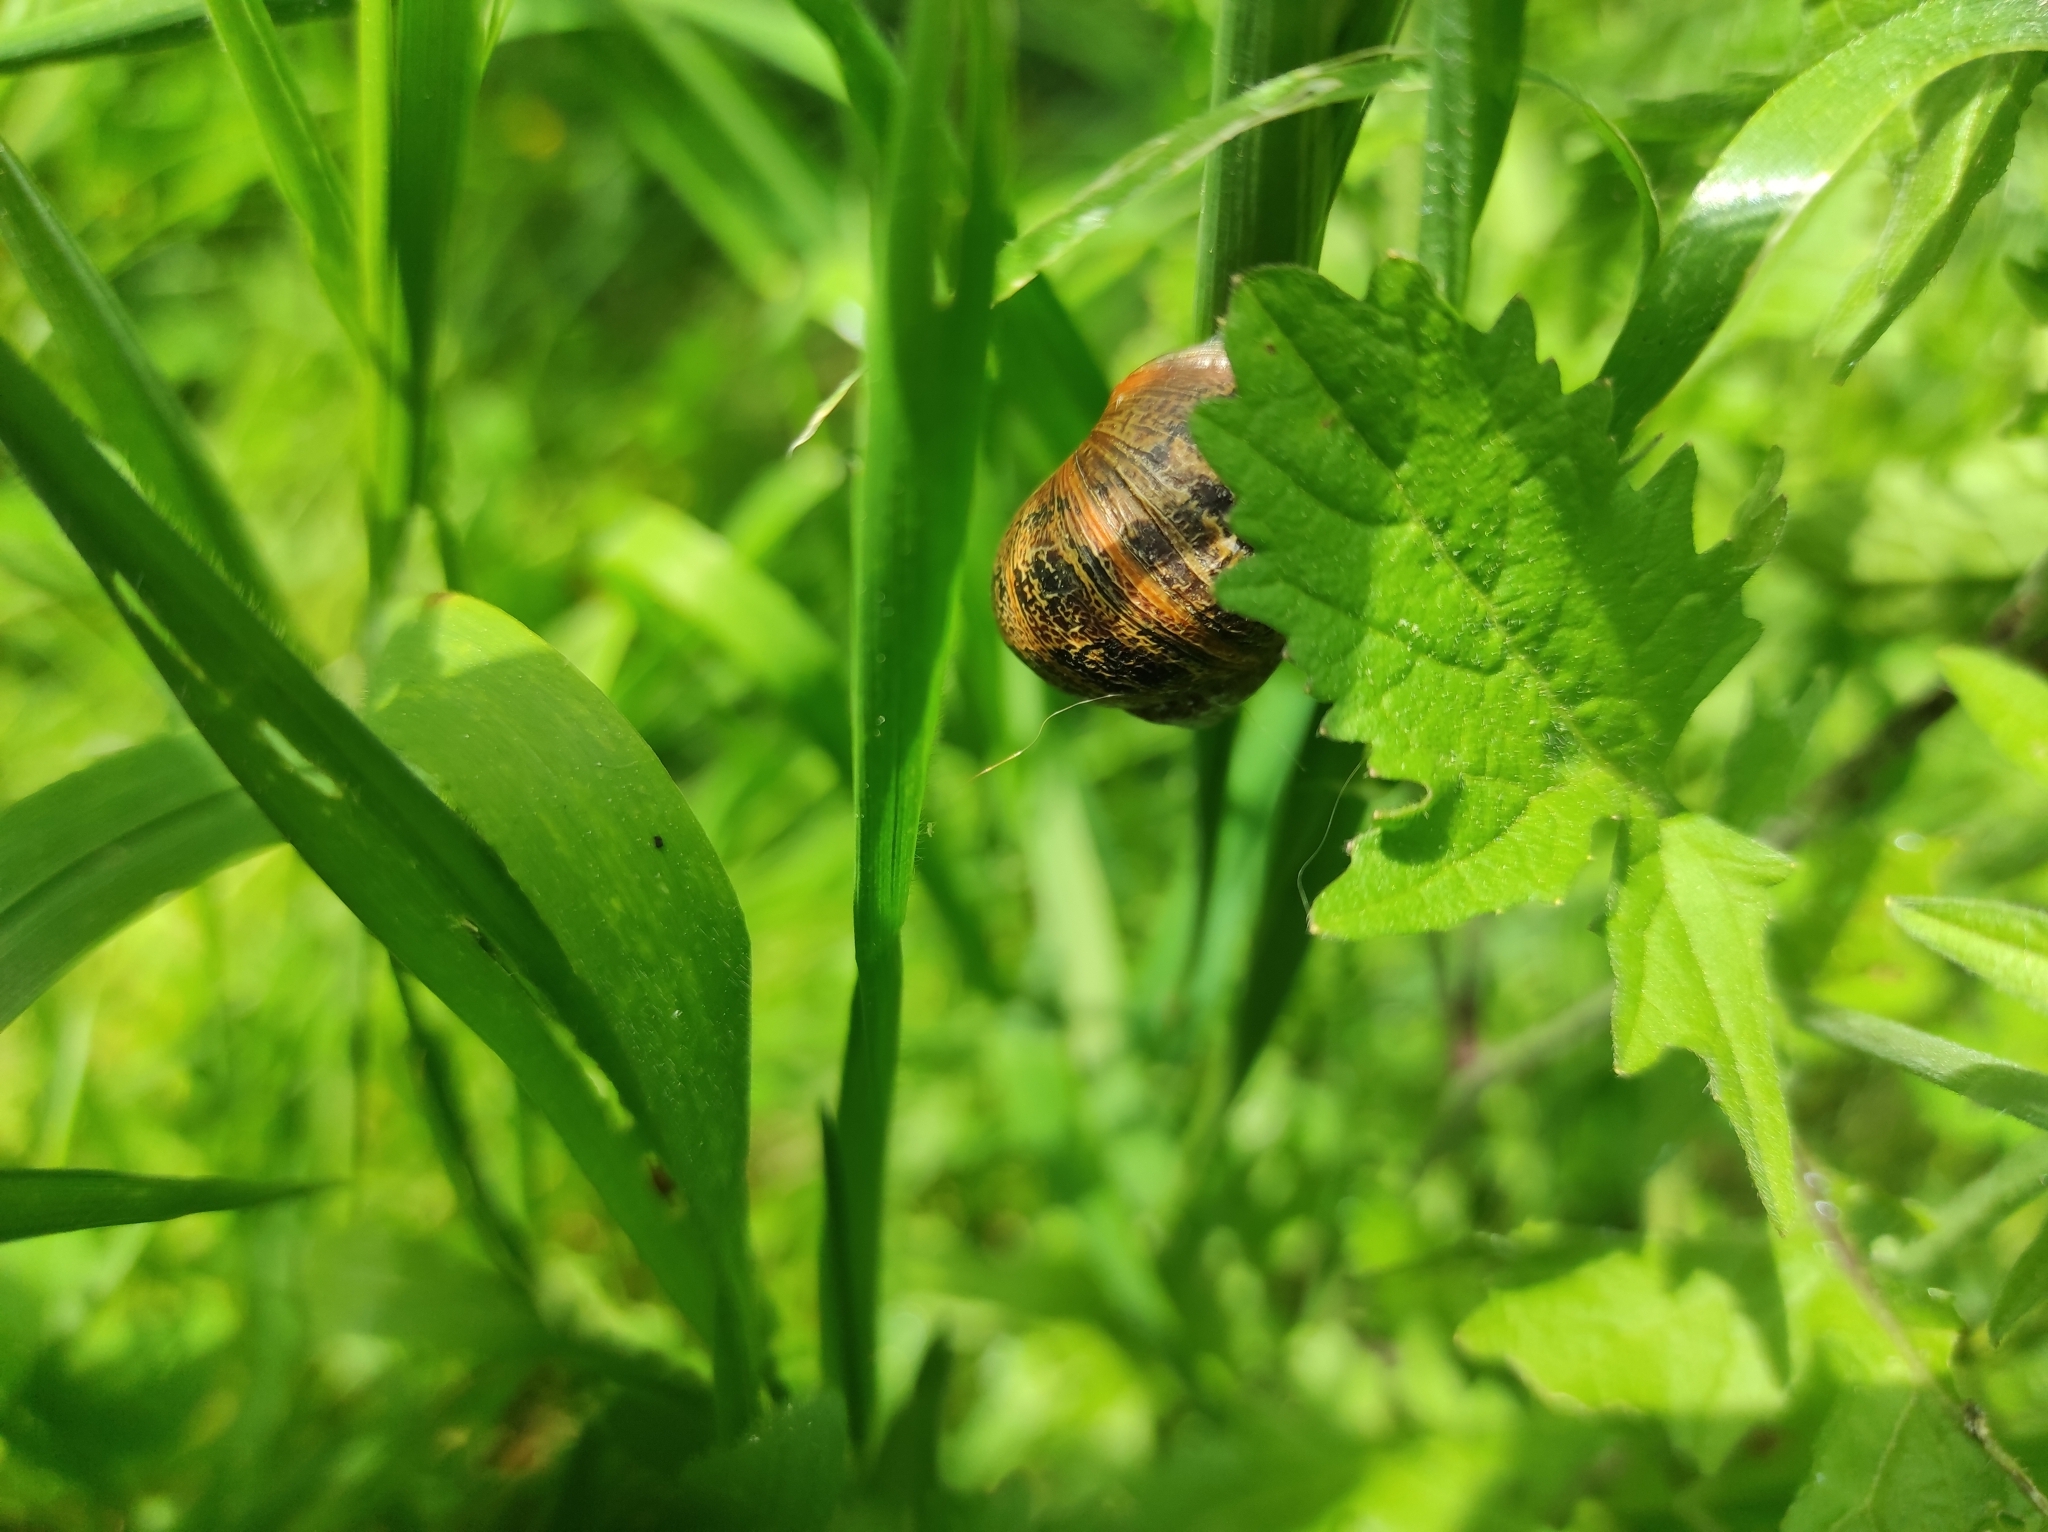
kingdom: Animalia
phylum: Mollusca
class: Gastropoda
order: Stylommatophora
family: Helicidae
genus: Cornu
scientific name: Cornu aspersum
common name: Brown garden snail
